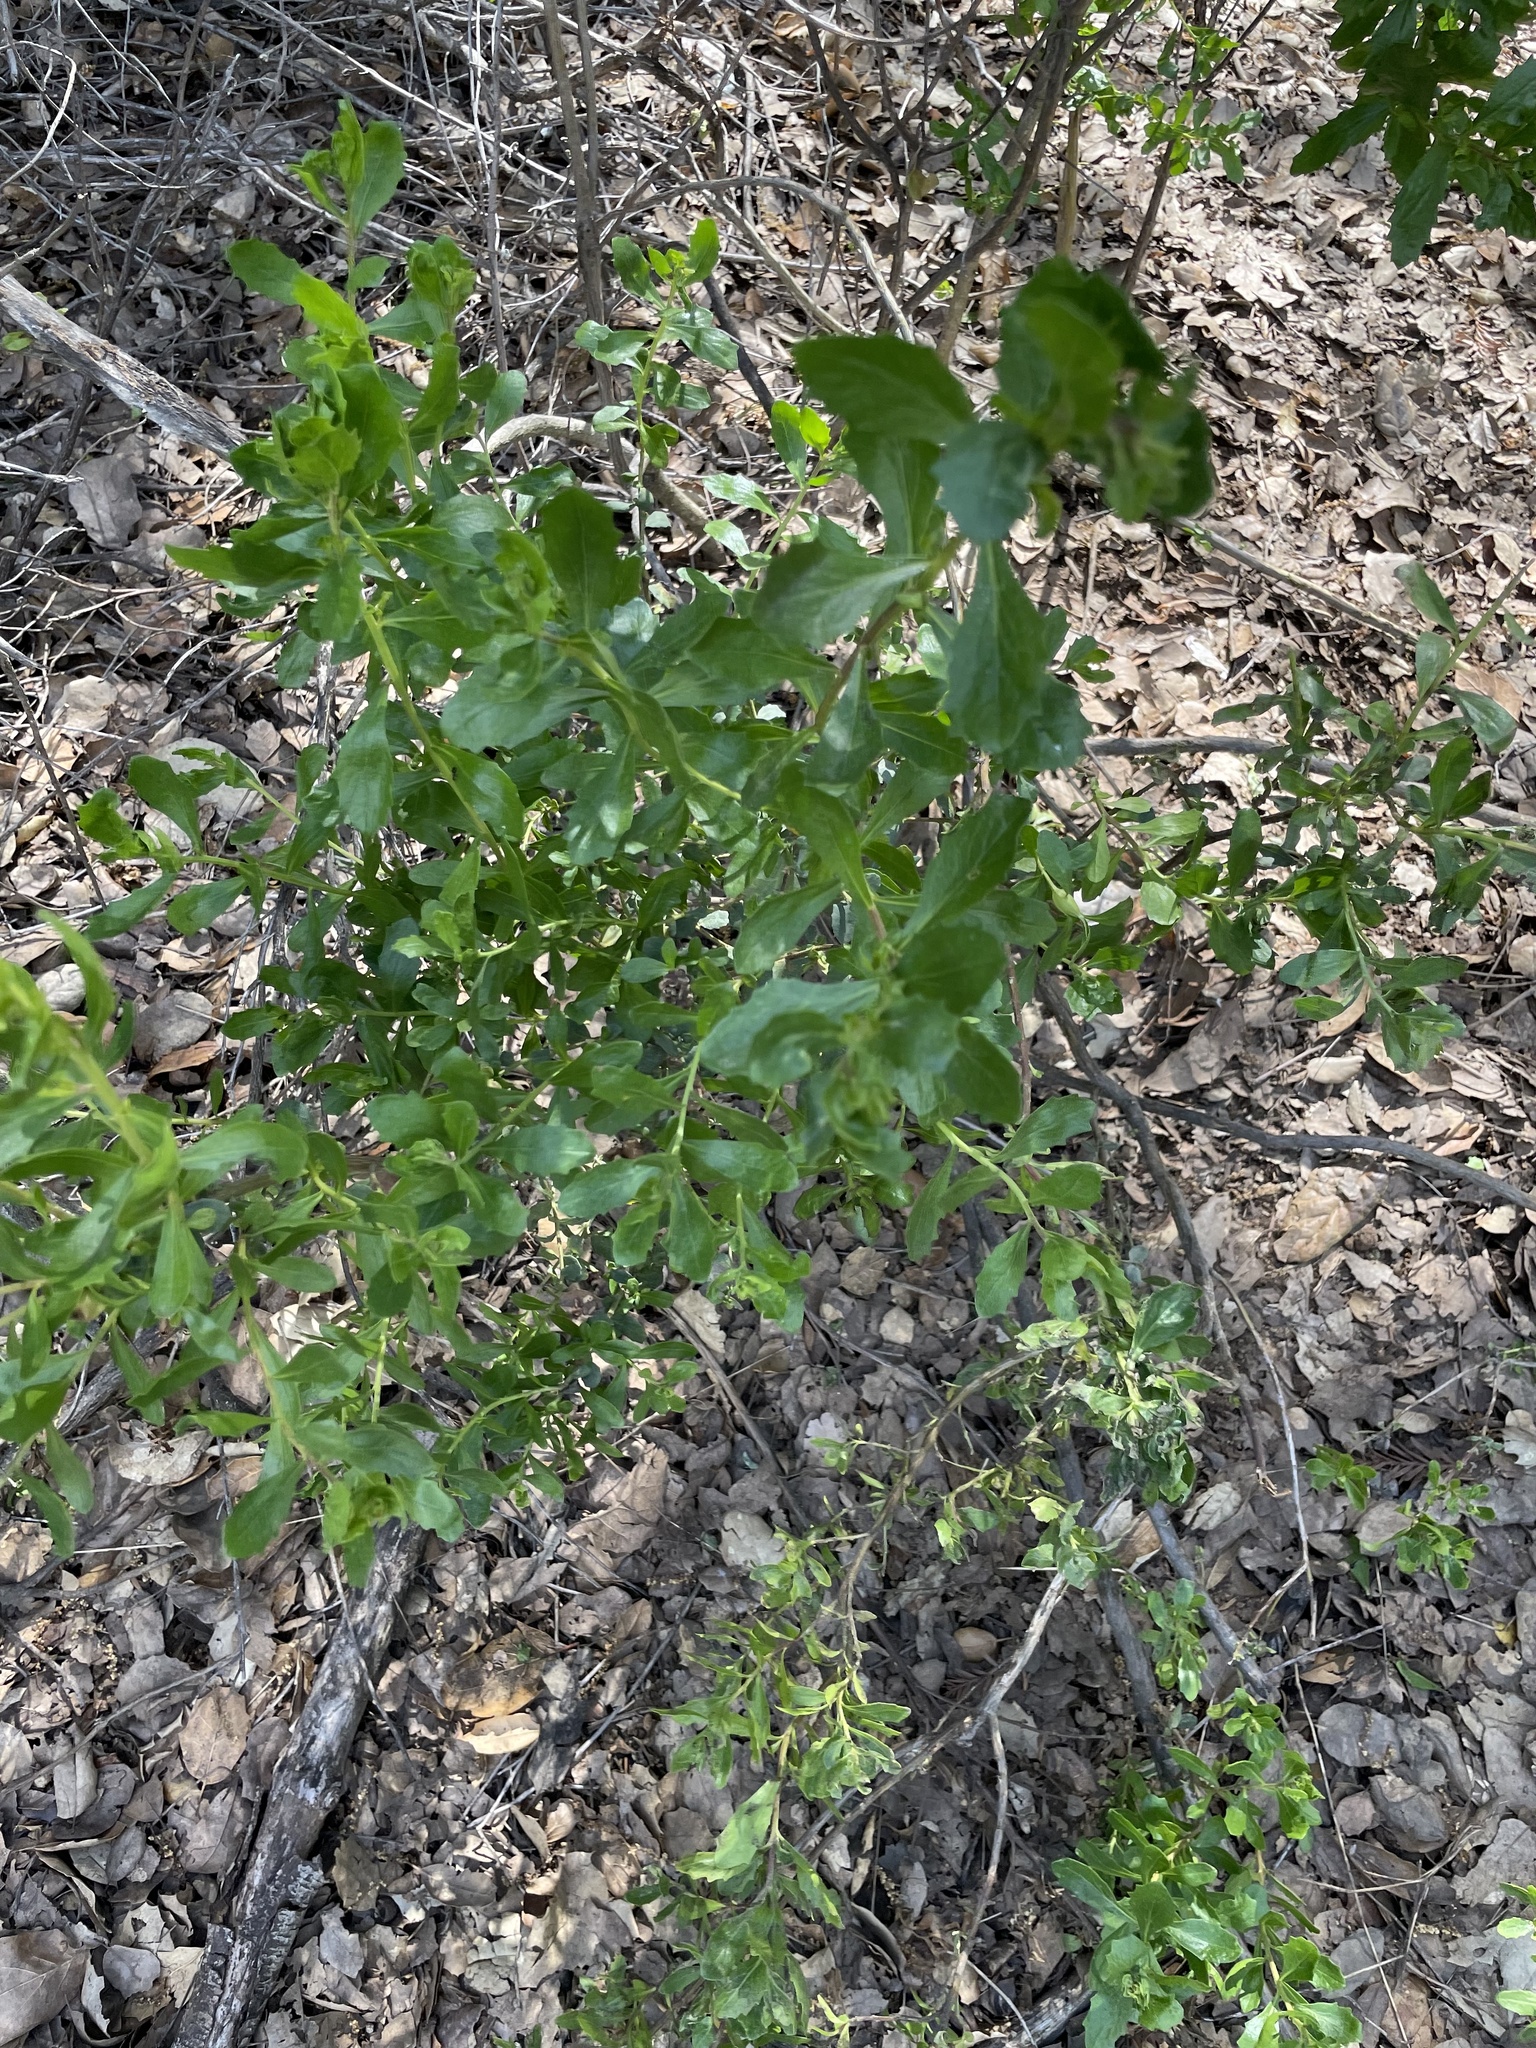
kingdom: Animalia
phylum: Arthropoda
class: Insecta
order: Diptera
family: Cecidomyiidae
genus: Rhopalomyia
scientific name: Rhopalomyia californica
